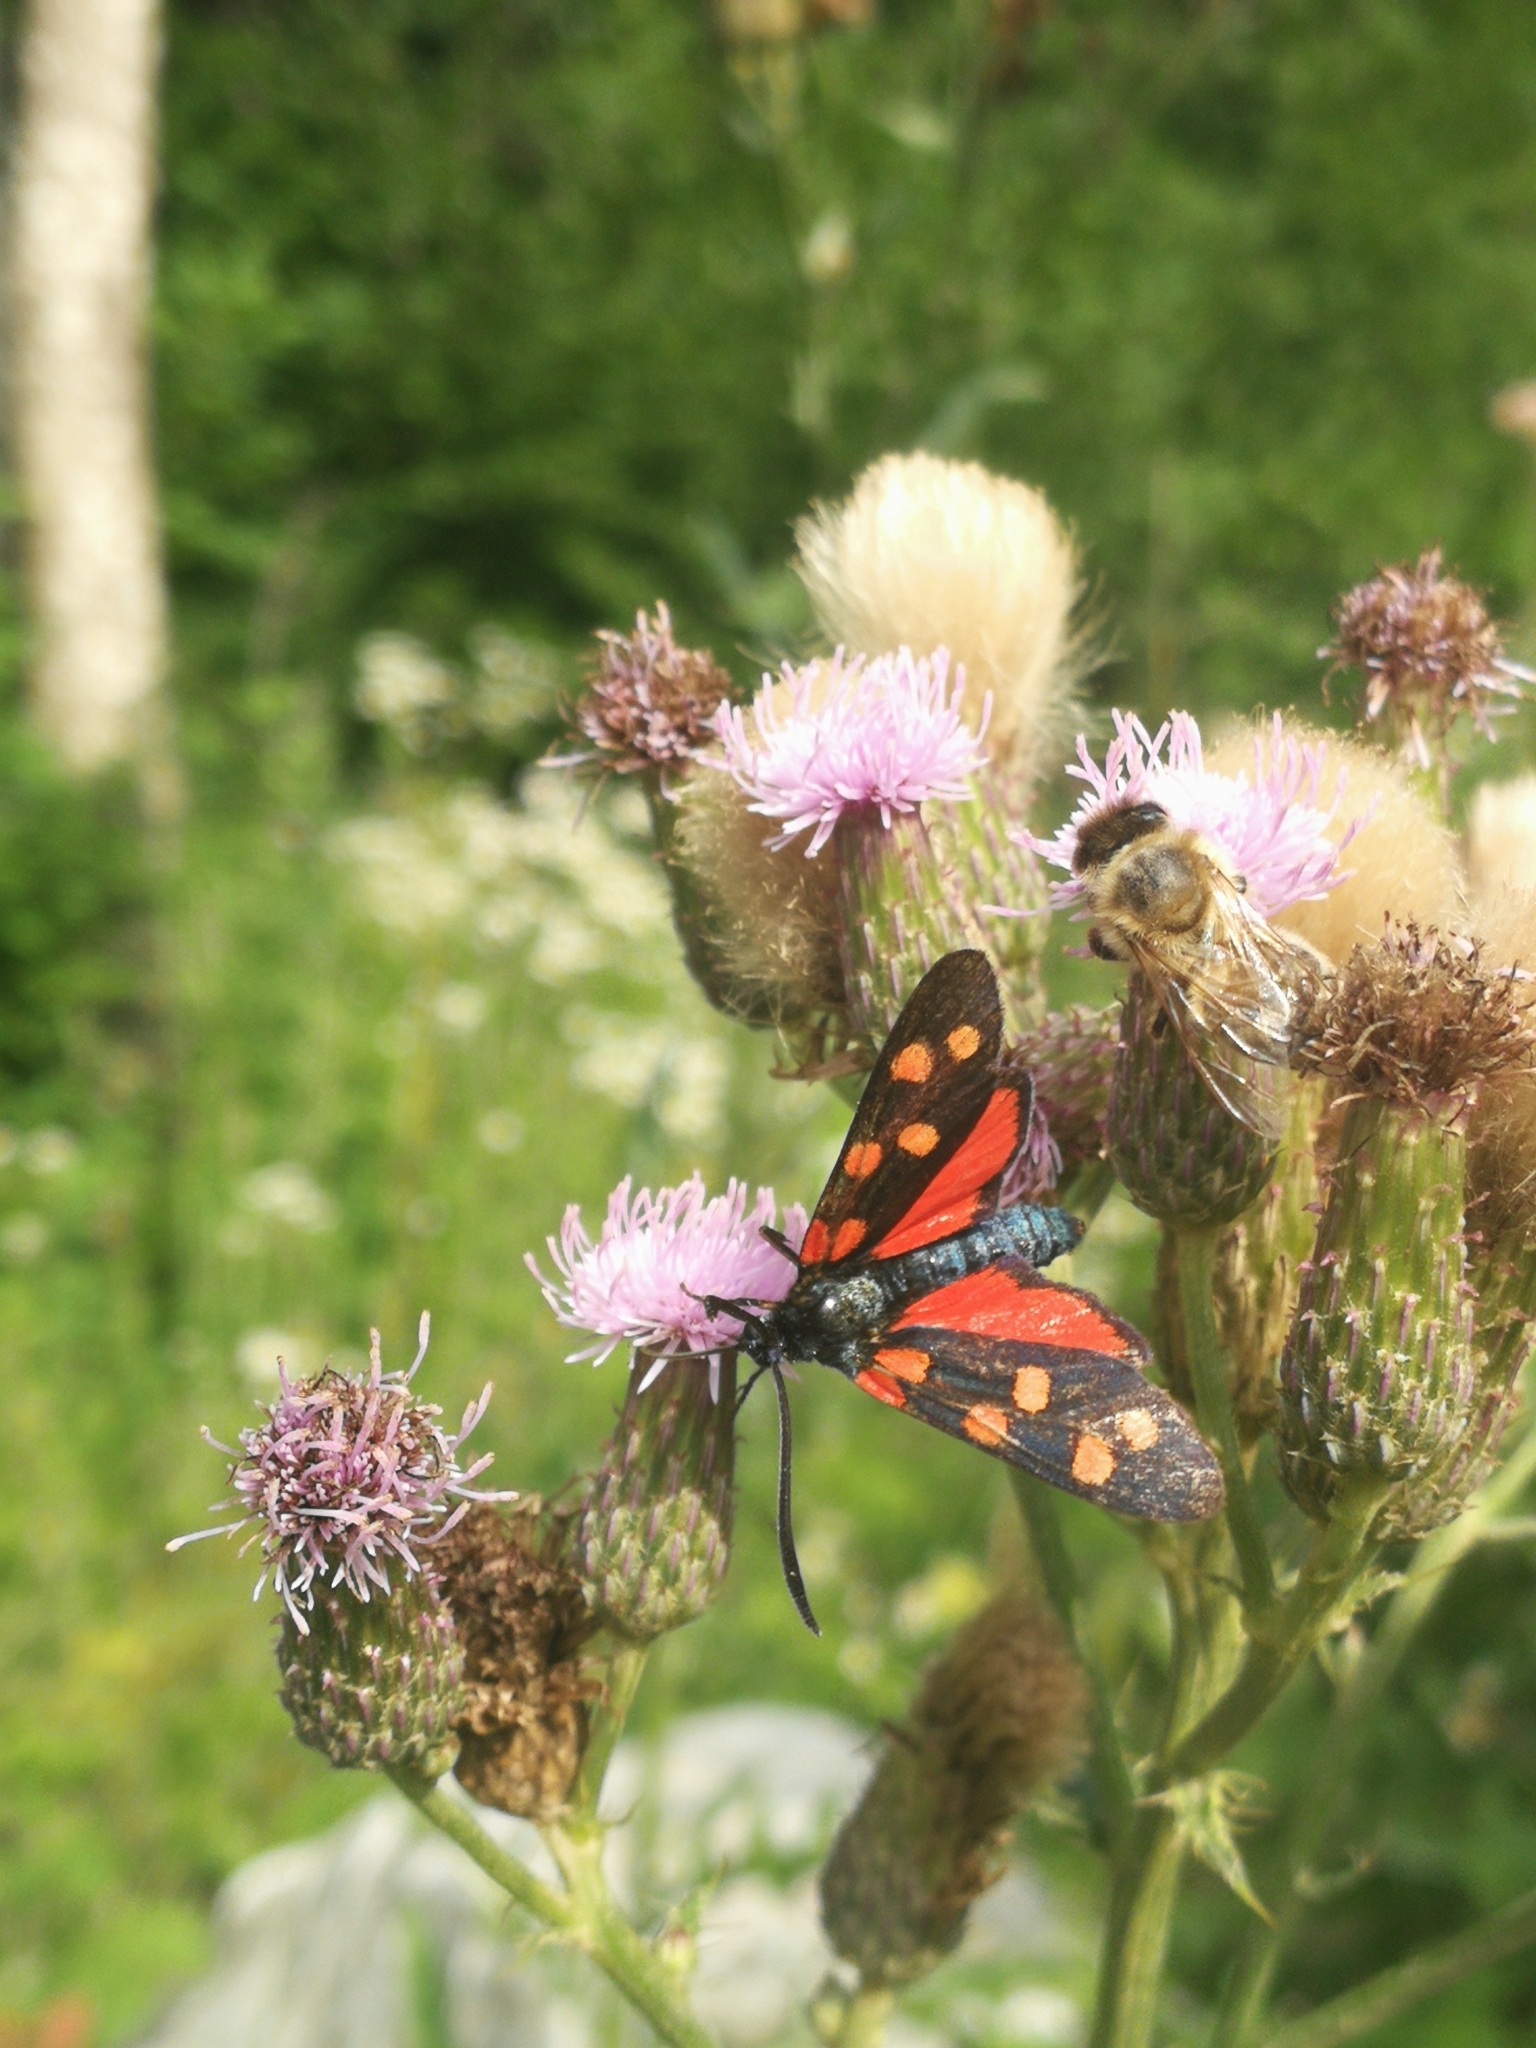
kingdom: Animalia
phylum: Arthropoda
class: Insecta
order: Lepidoptera
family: Zygaenidae
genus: Zygaena
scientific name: Zygaena transalpina
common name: Southern six spot burnet
